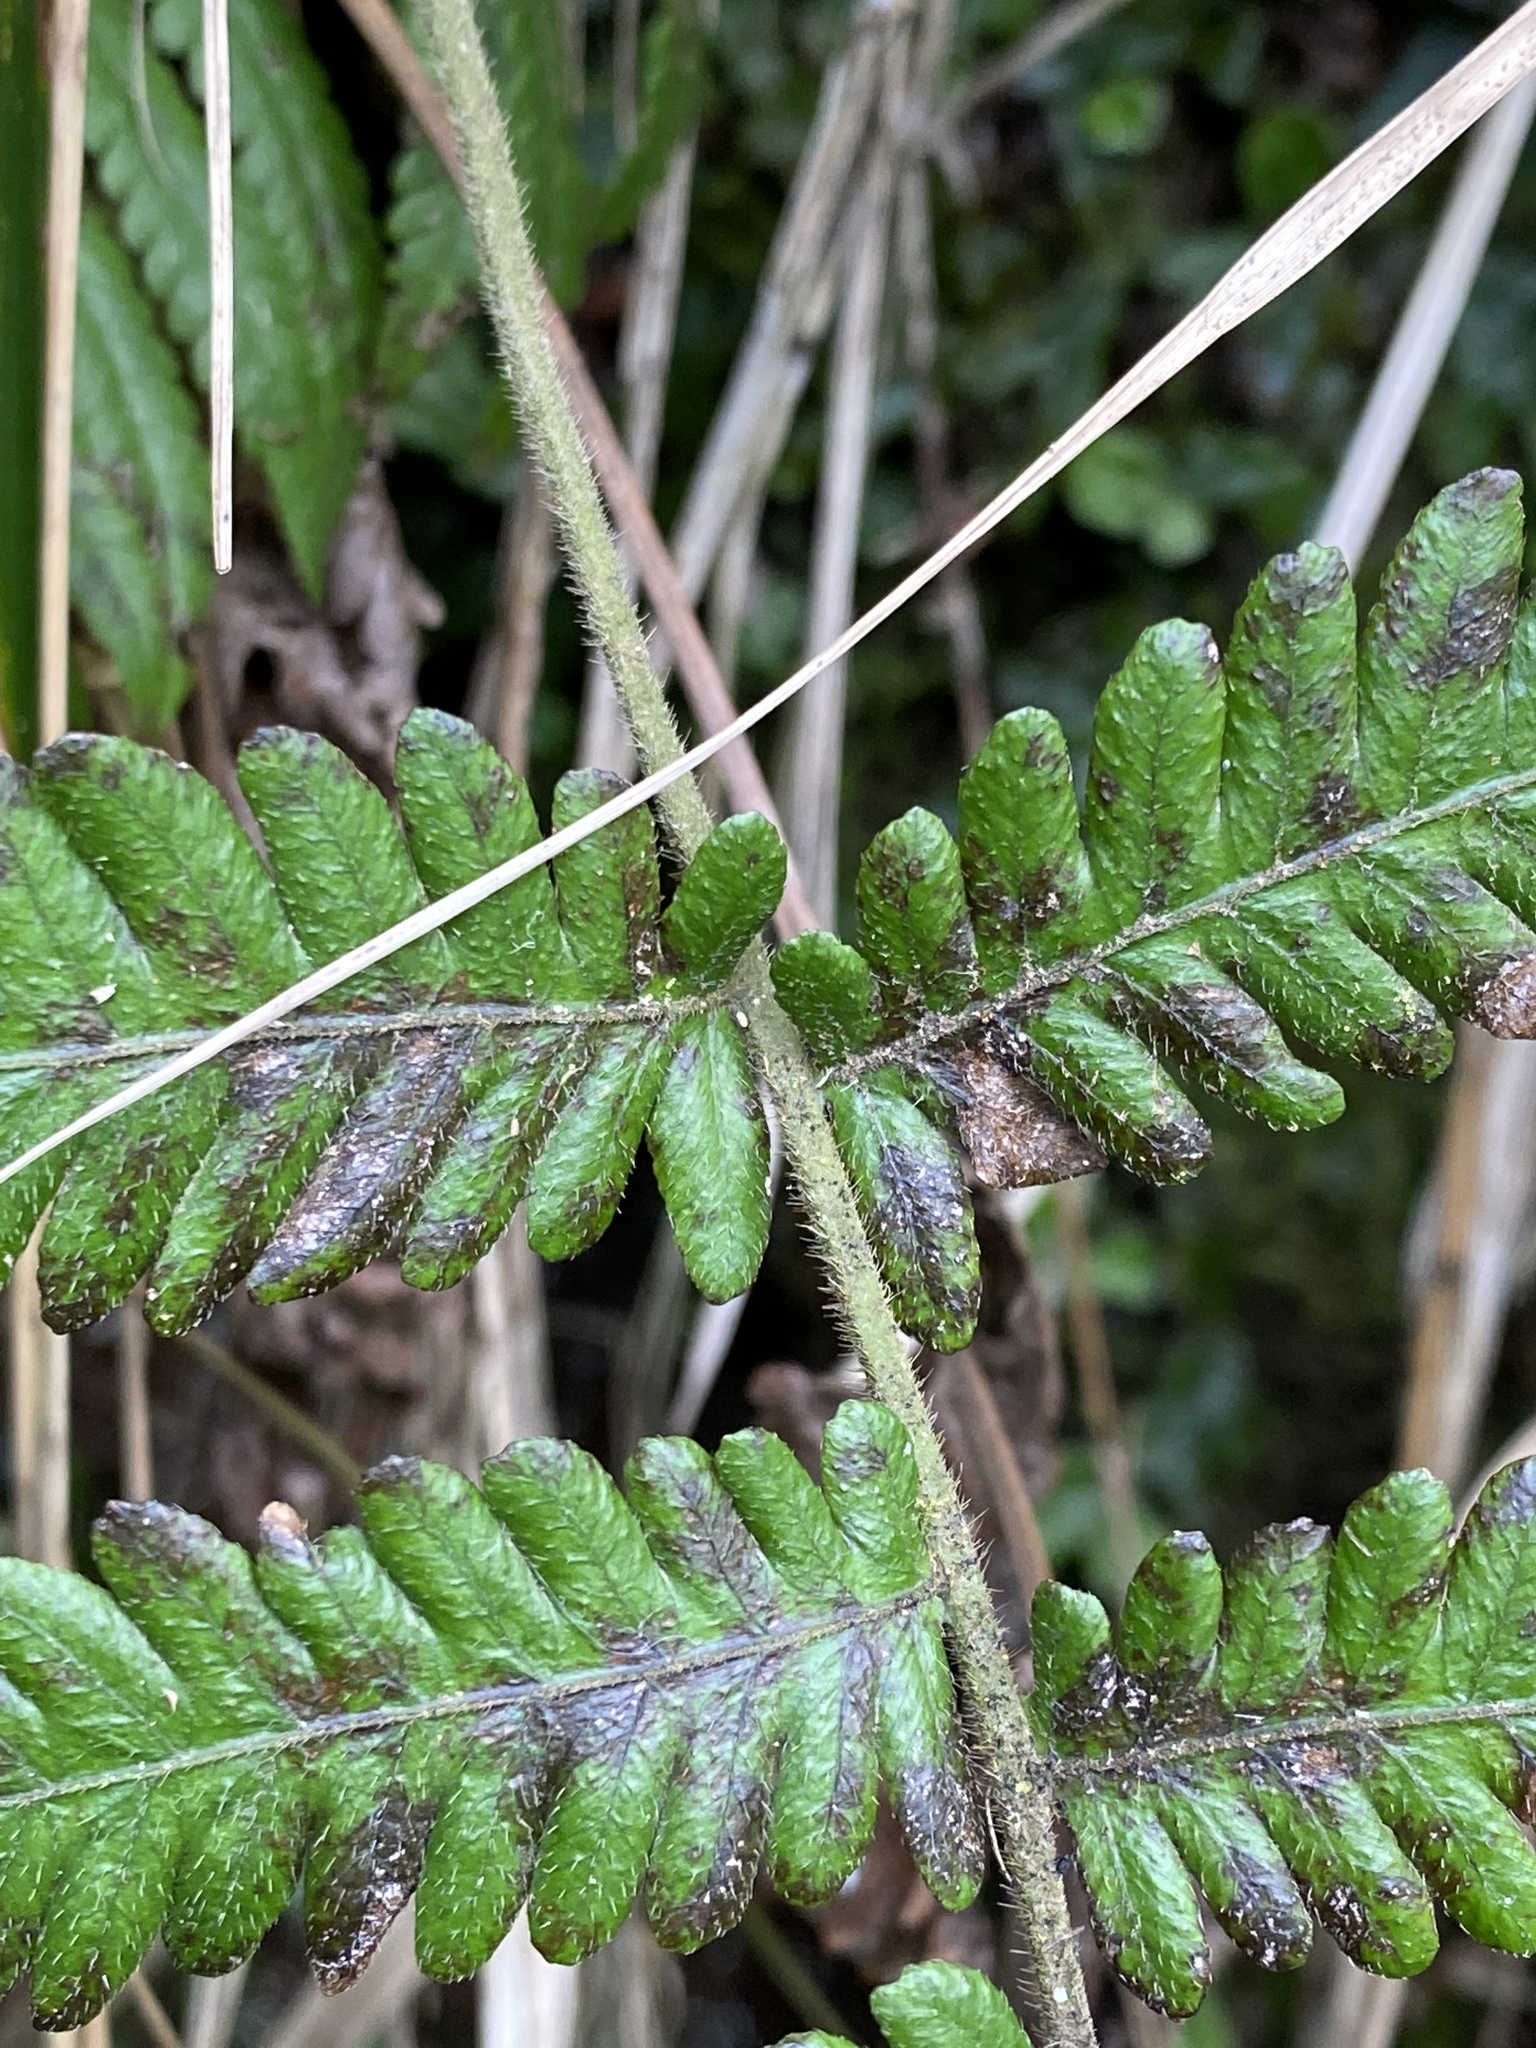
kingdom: Plantae
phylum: Tracheophyta
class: Polypodiopsida
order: Polypodiales
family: Thelypteridaceae
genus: Christella
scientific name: Christella dentata
